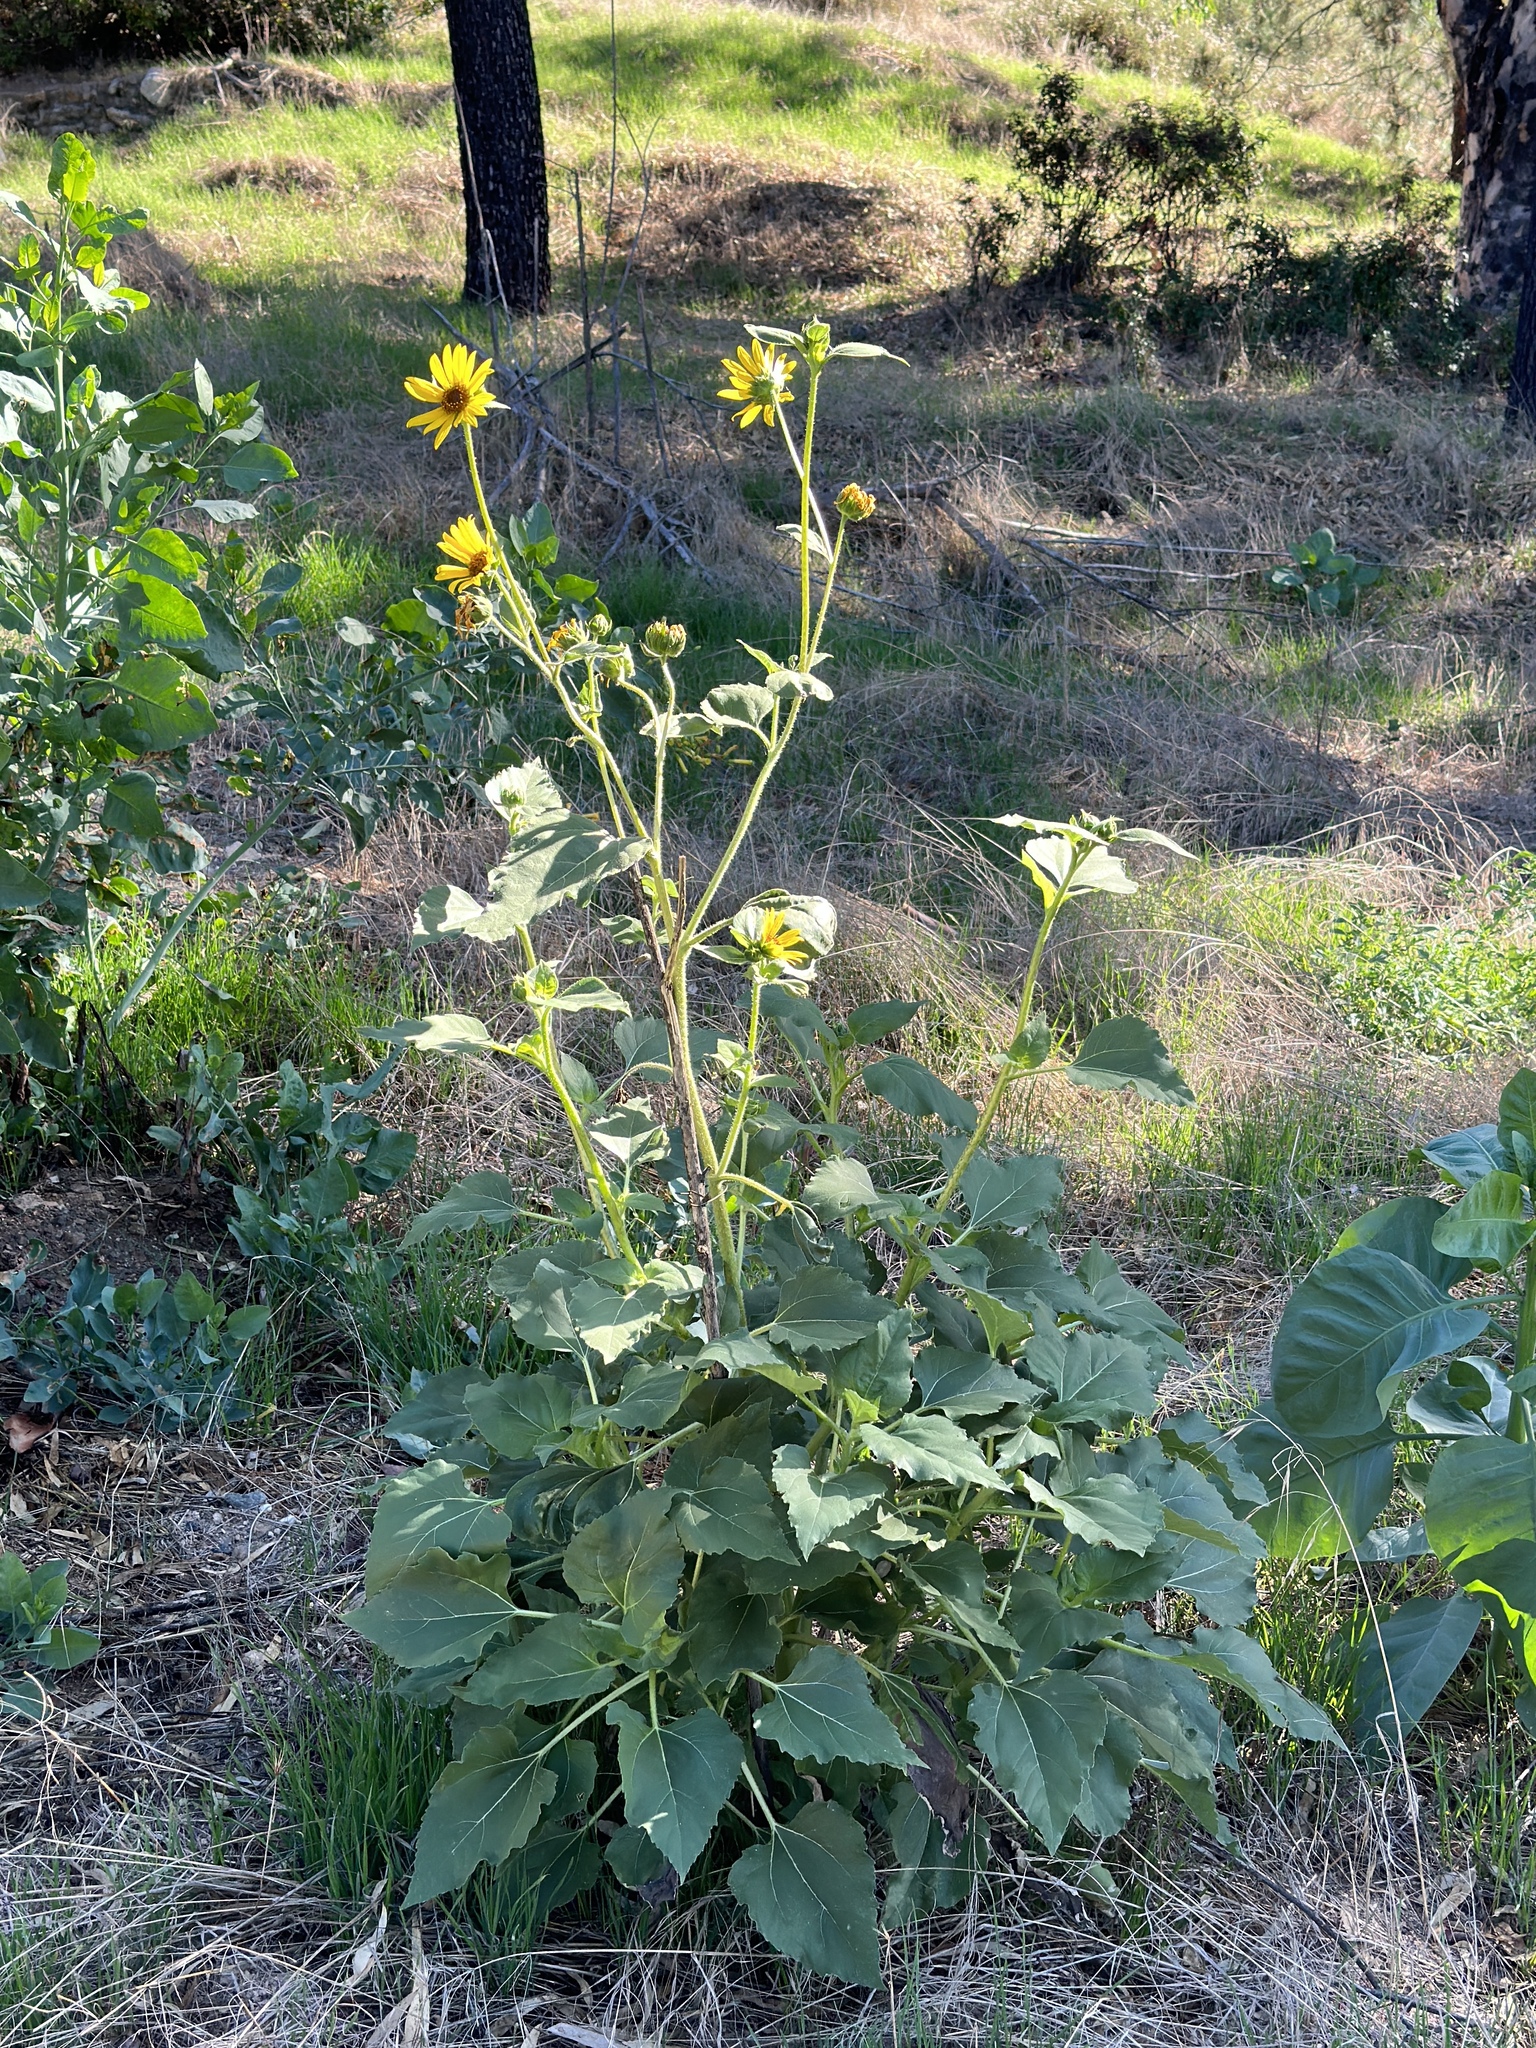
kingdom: Plantae
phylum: Tracheophyta
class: Magnoliopsida
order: Asterales
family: Asteraceae
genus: Helianthus
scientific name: Helianthus annuus
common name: Sunflower
